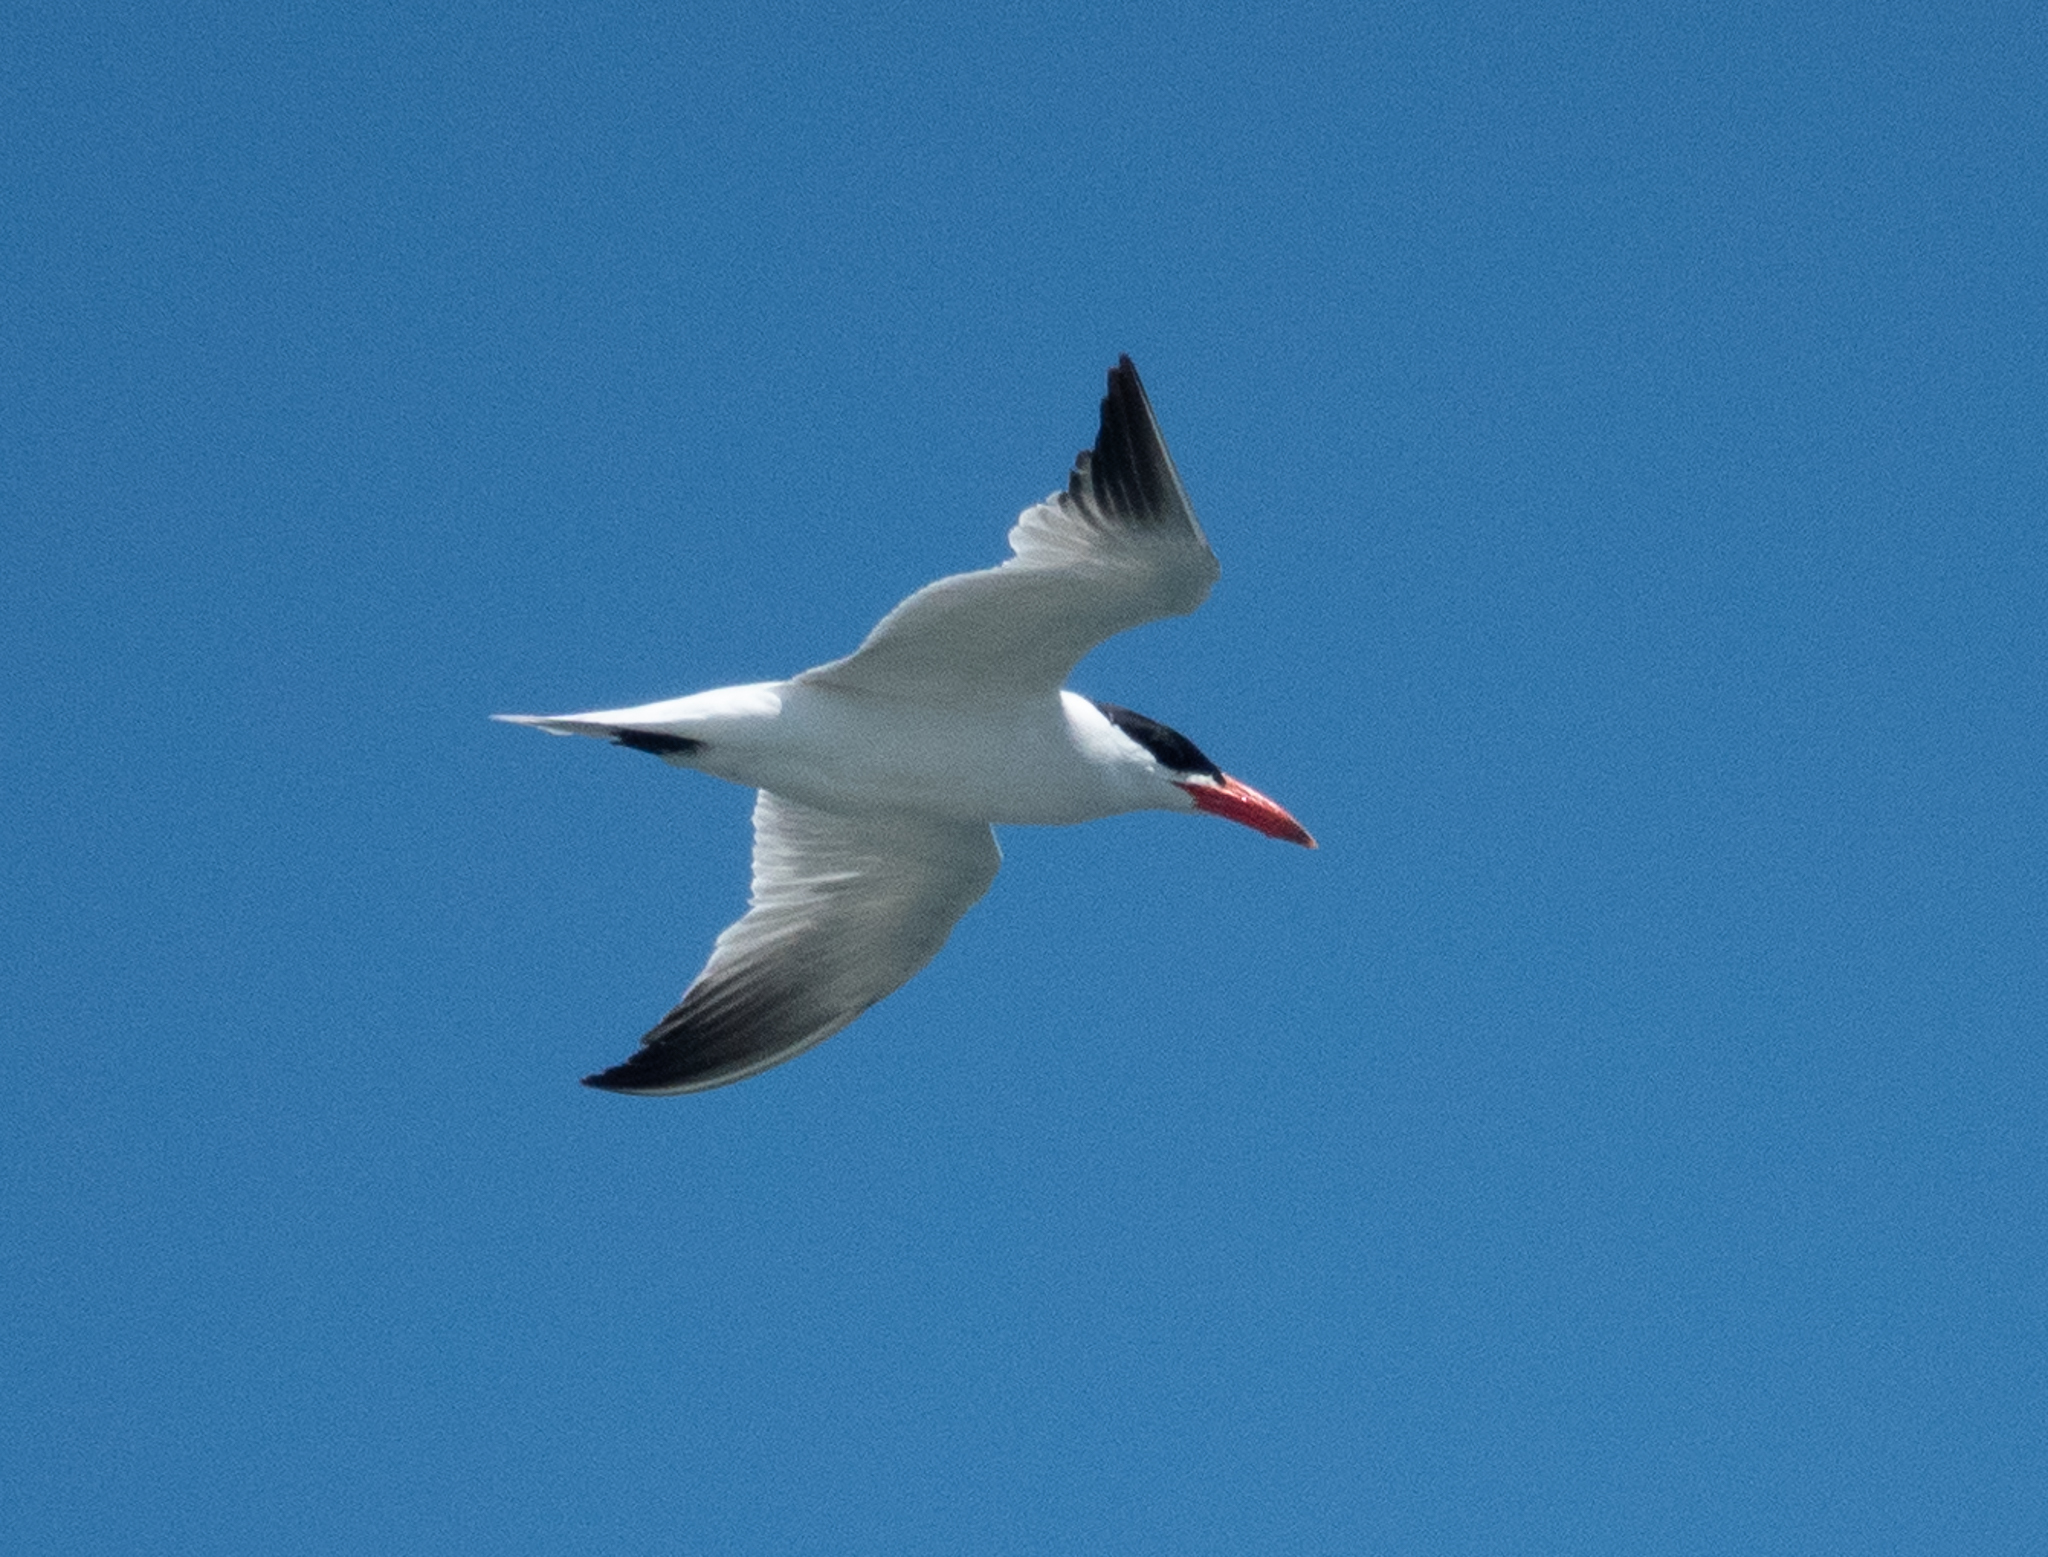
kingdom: Animalia
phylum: Chordata
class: Aves
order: Charadriiformes
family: Laridae
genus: Hydroprogne
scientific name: Hydroprogne caspia
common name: Caspian tern
